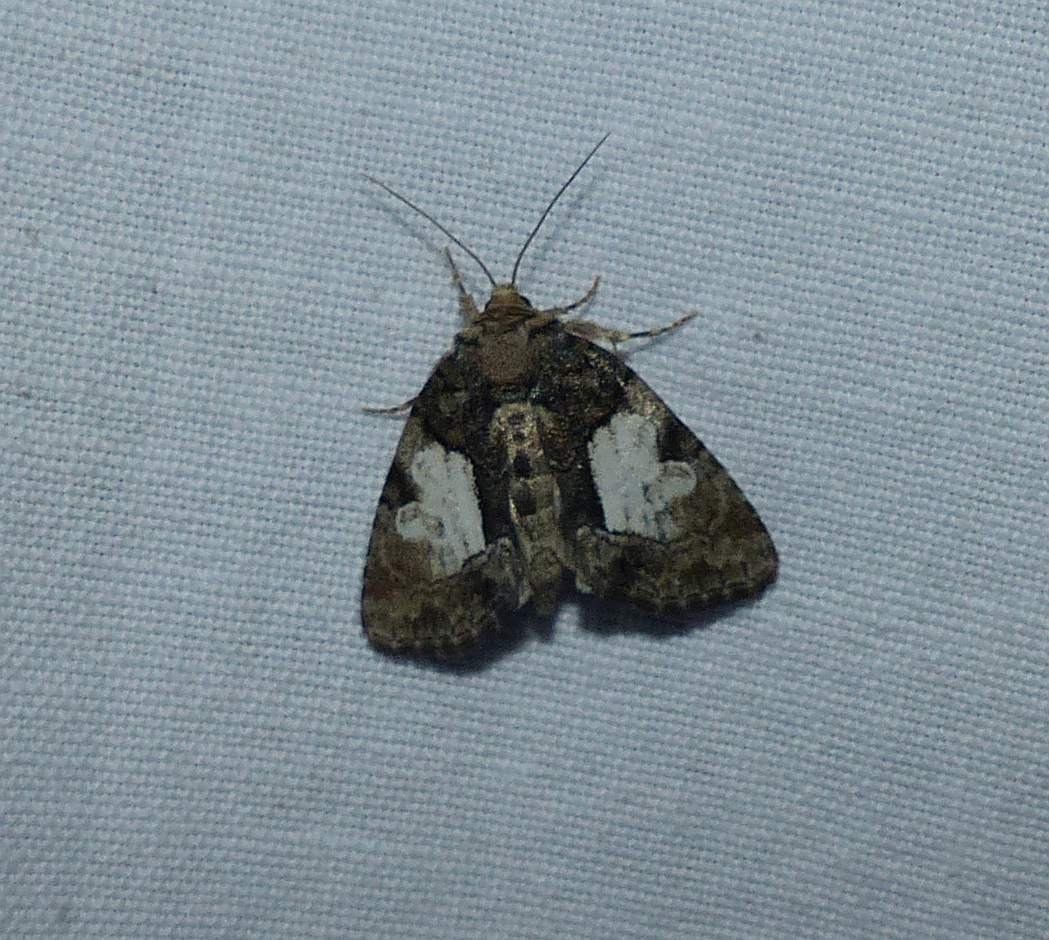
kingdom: Animalia
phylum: Arthropoda
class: Insecta
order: Lepidoptera
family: Noctuidae
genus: Chytonix
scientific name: Chytonix palliatricula
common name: Cloaked marvel
